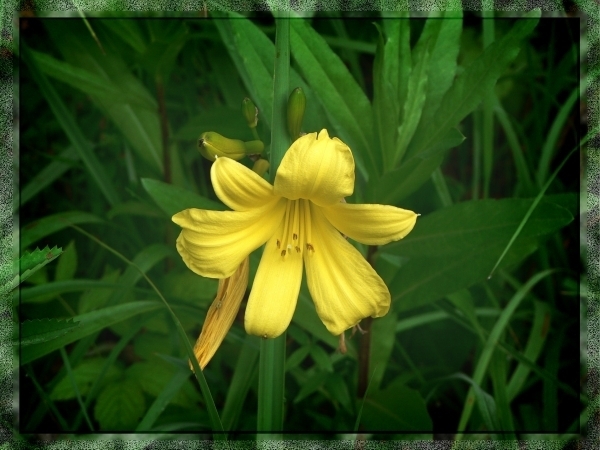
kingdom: Plantae
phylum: Tracheophyta
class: Liliopsida
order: Asparagales
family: Asphodelaceae
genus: Hemerocallis
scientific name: Hemerocallis minor
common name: Small daylily
